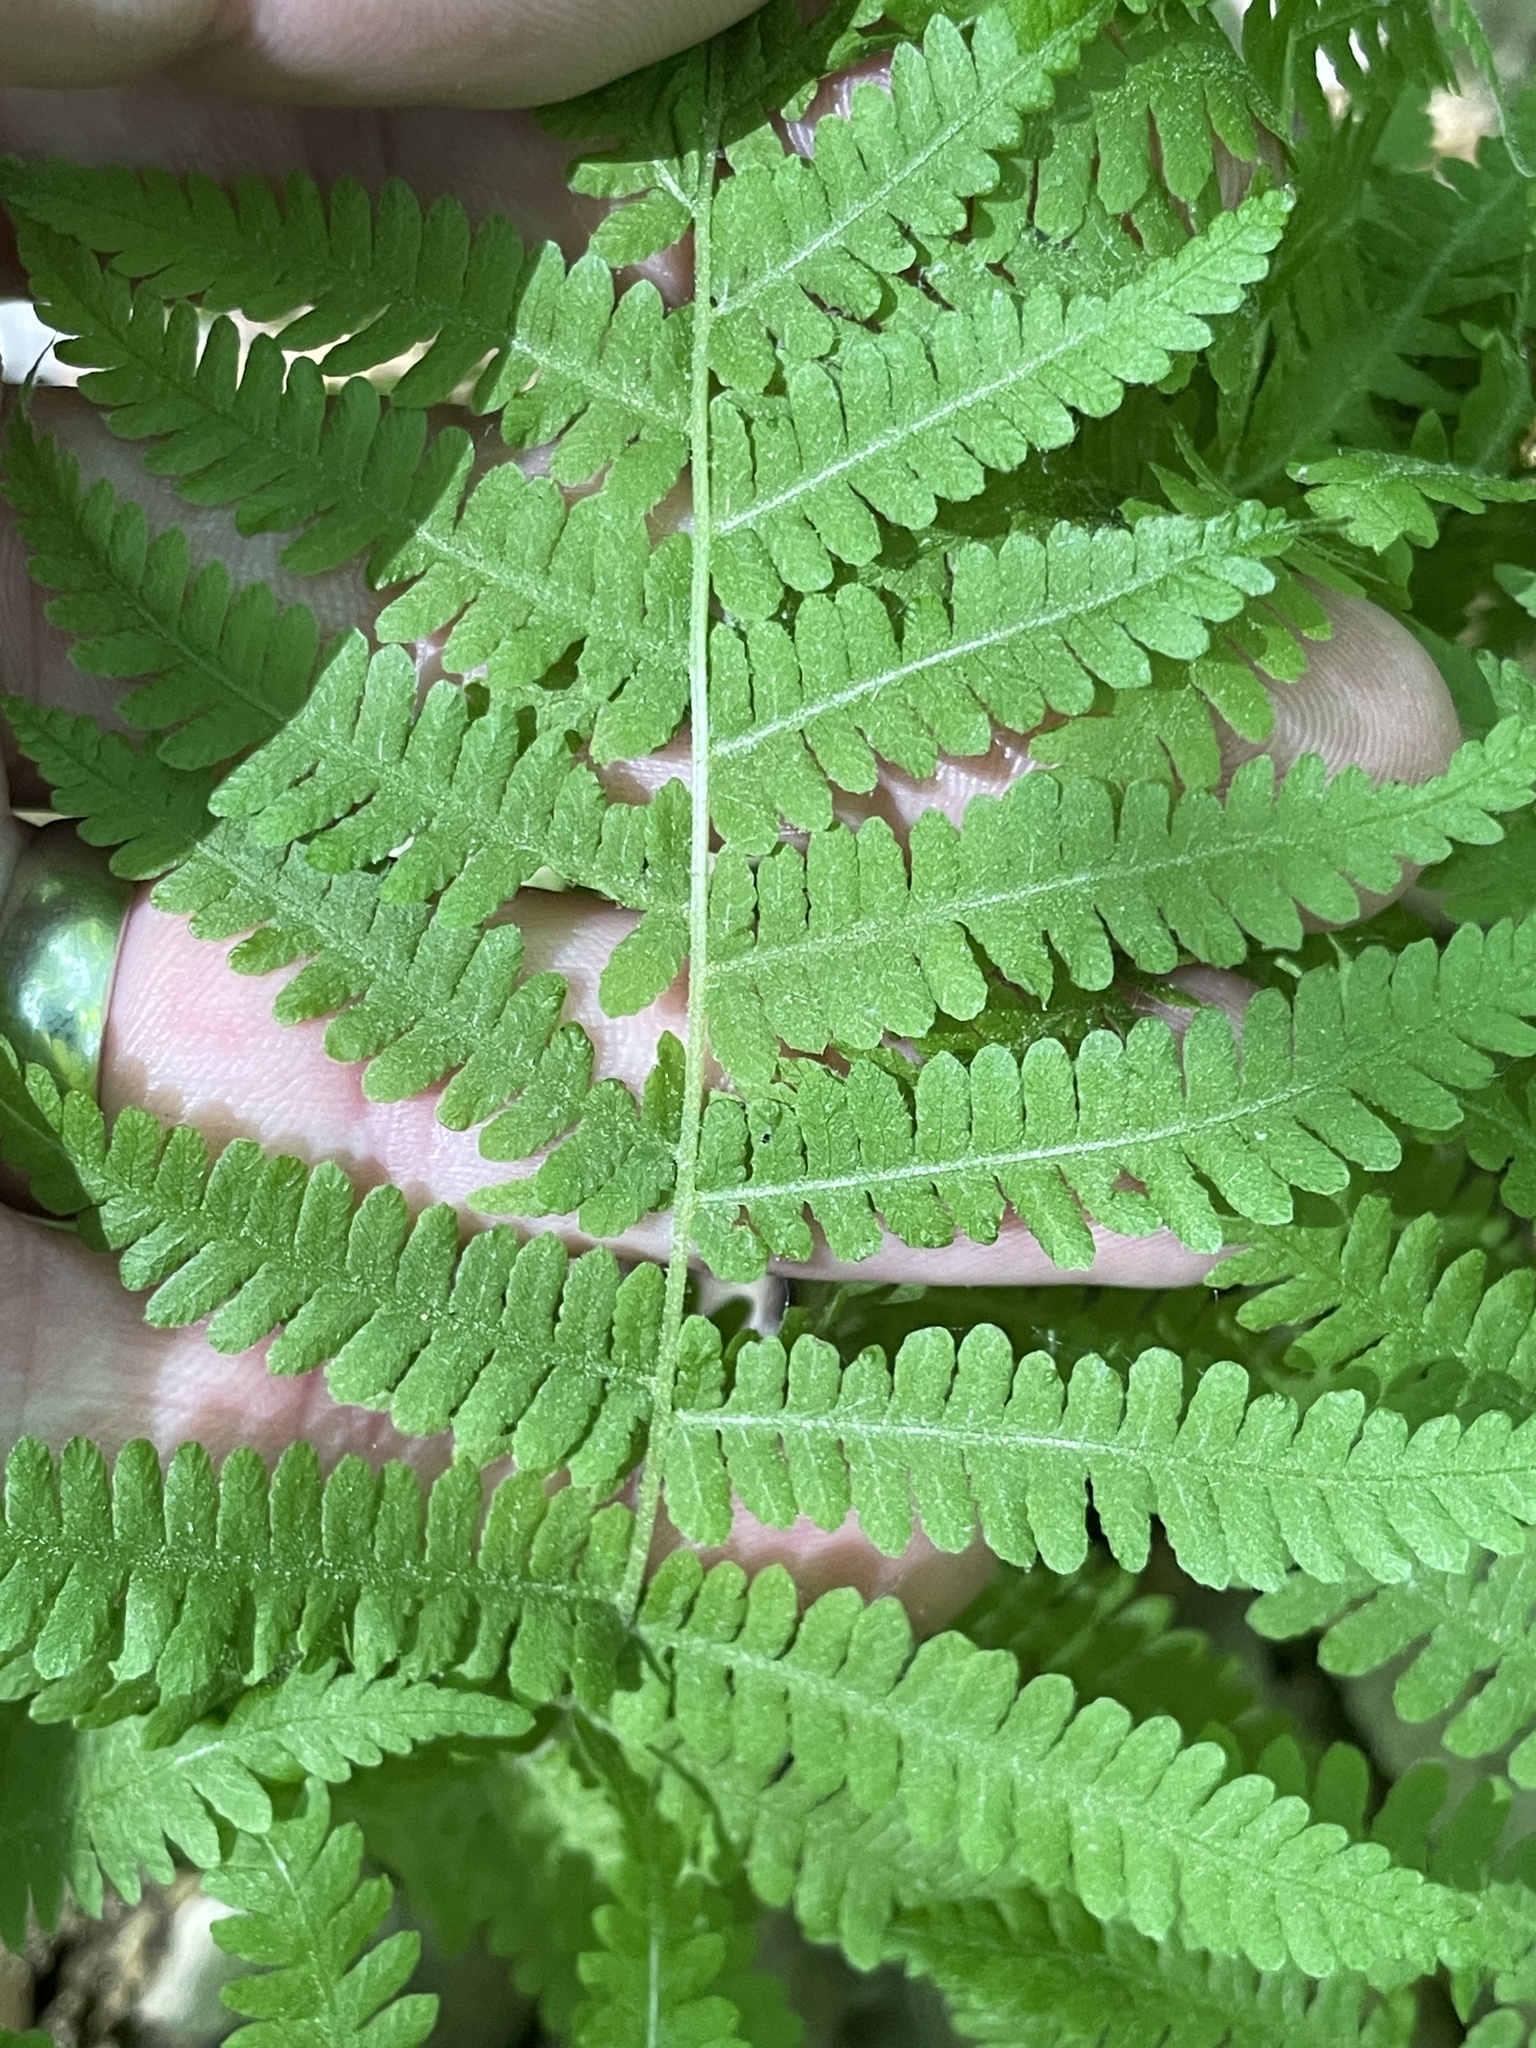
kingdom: Plantae
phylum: Tracheophyta
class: Polypodiopsida
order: Polypodiales
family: Thelypteridaceae
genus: Amauropelta
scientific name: Amauropelta noveboracensis
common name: New york fern
